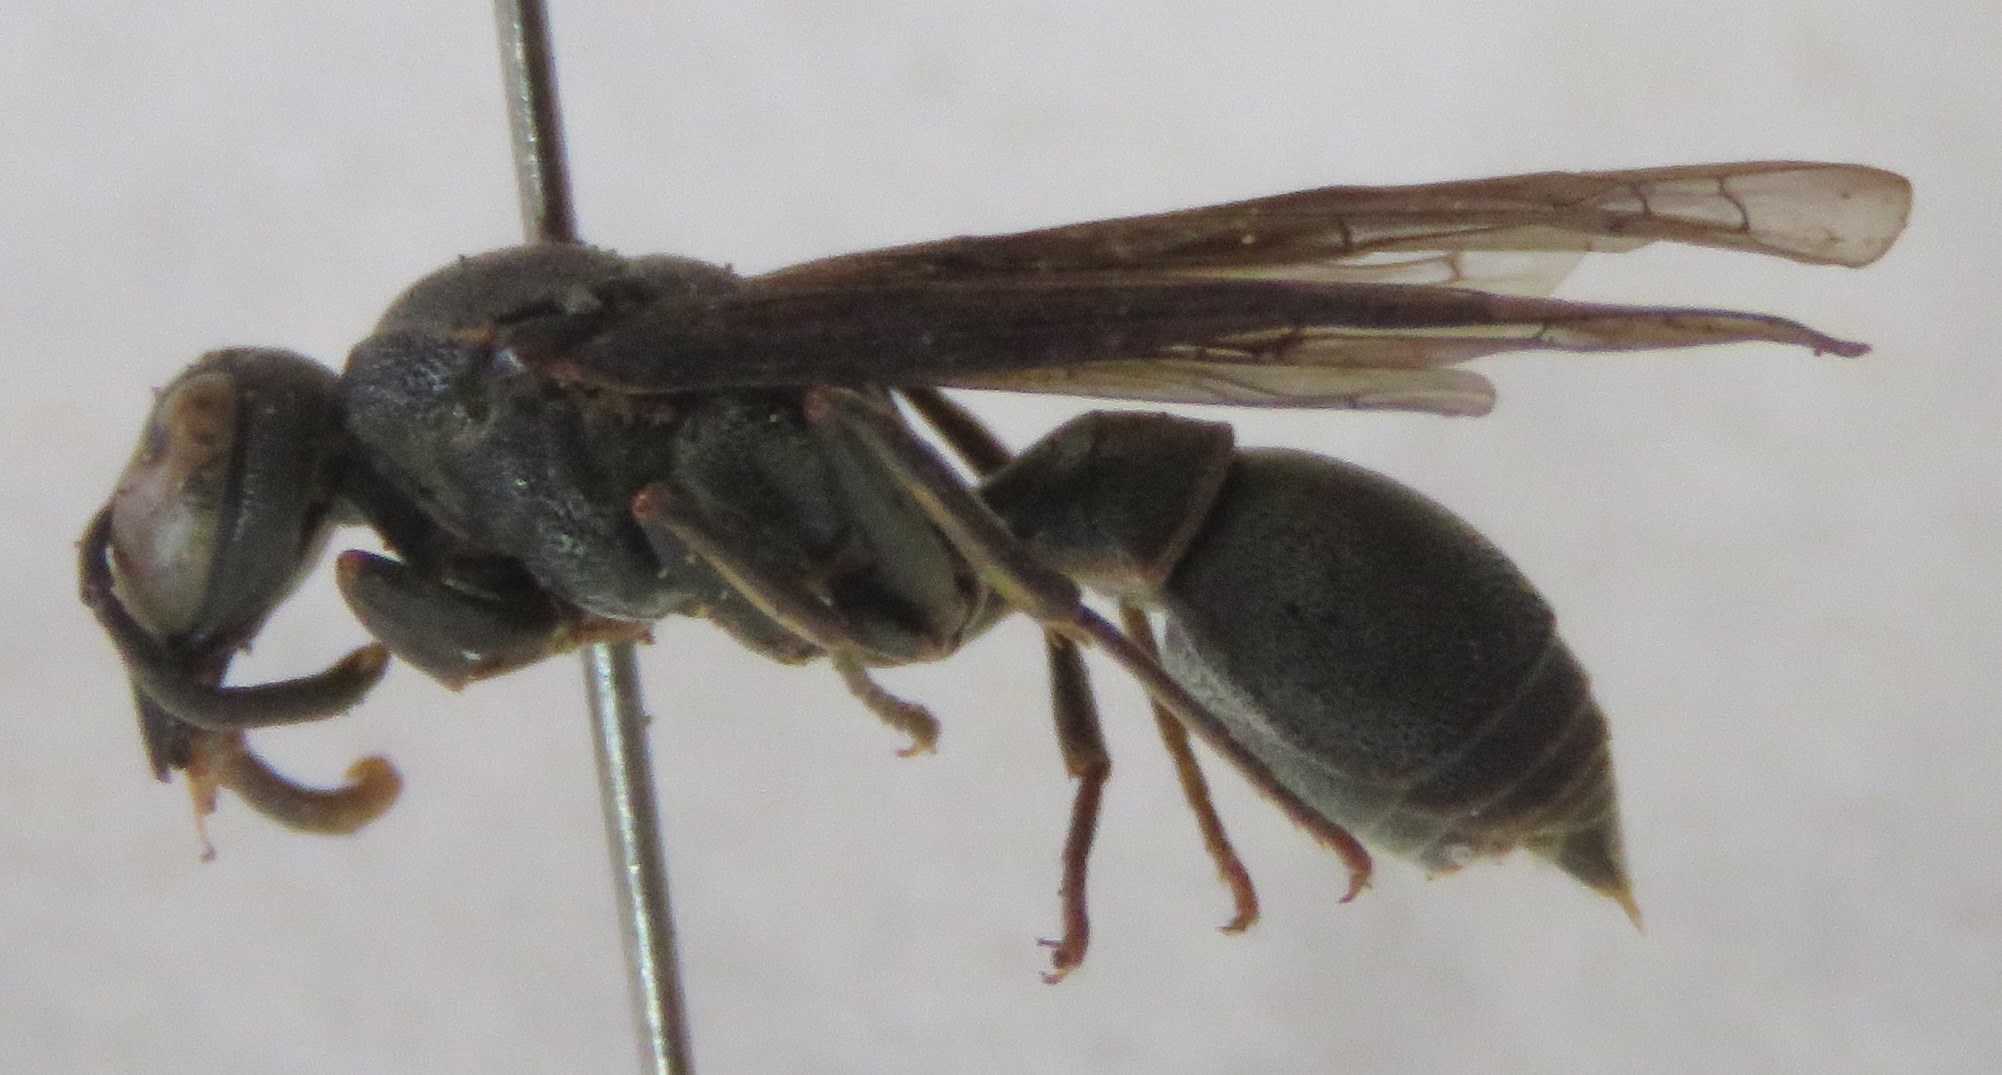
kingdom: Animalia
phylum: Arthropoda
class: Insecta
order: Hymenoptera
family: Eumenidae
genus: Stenonartonia
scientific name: Stenonartonia apicipennis
